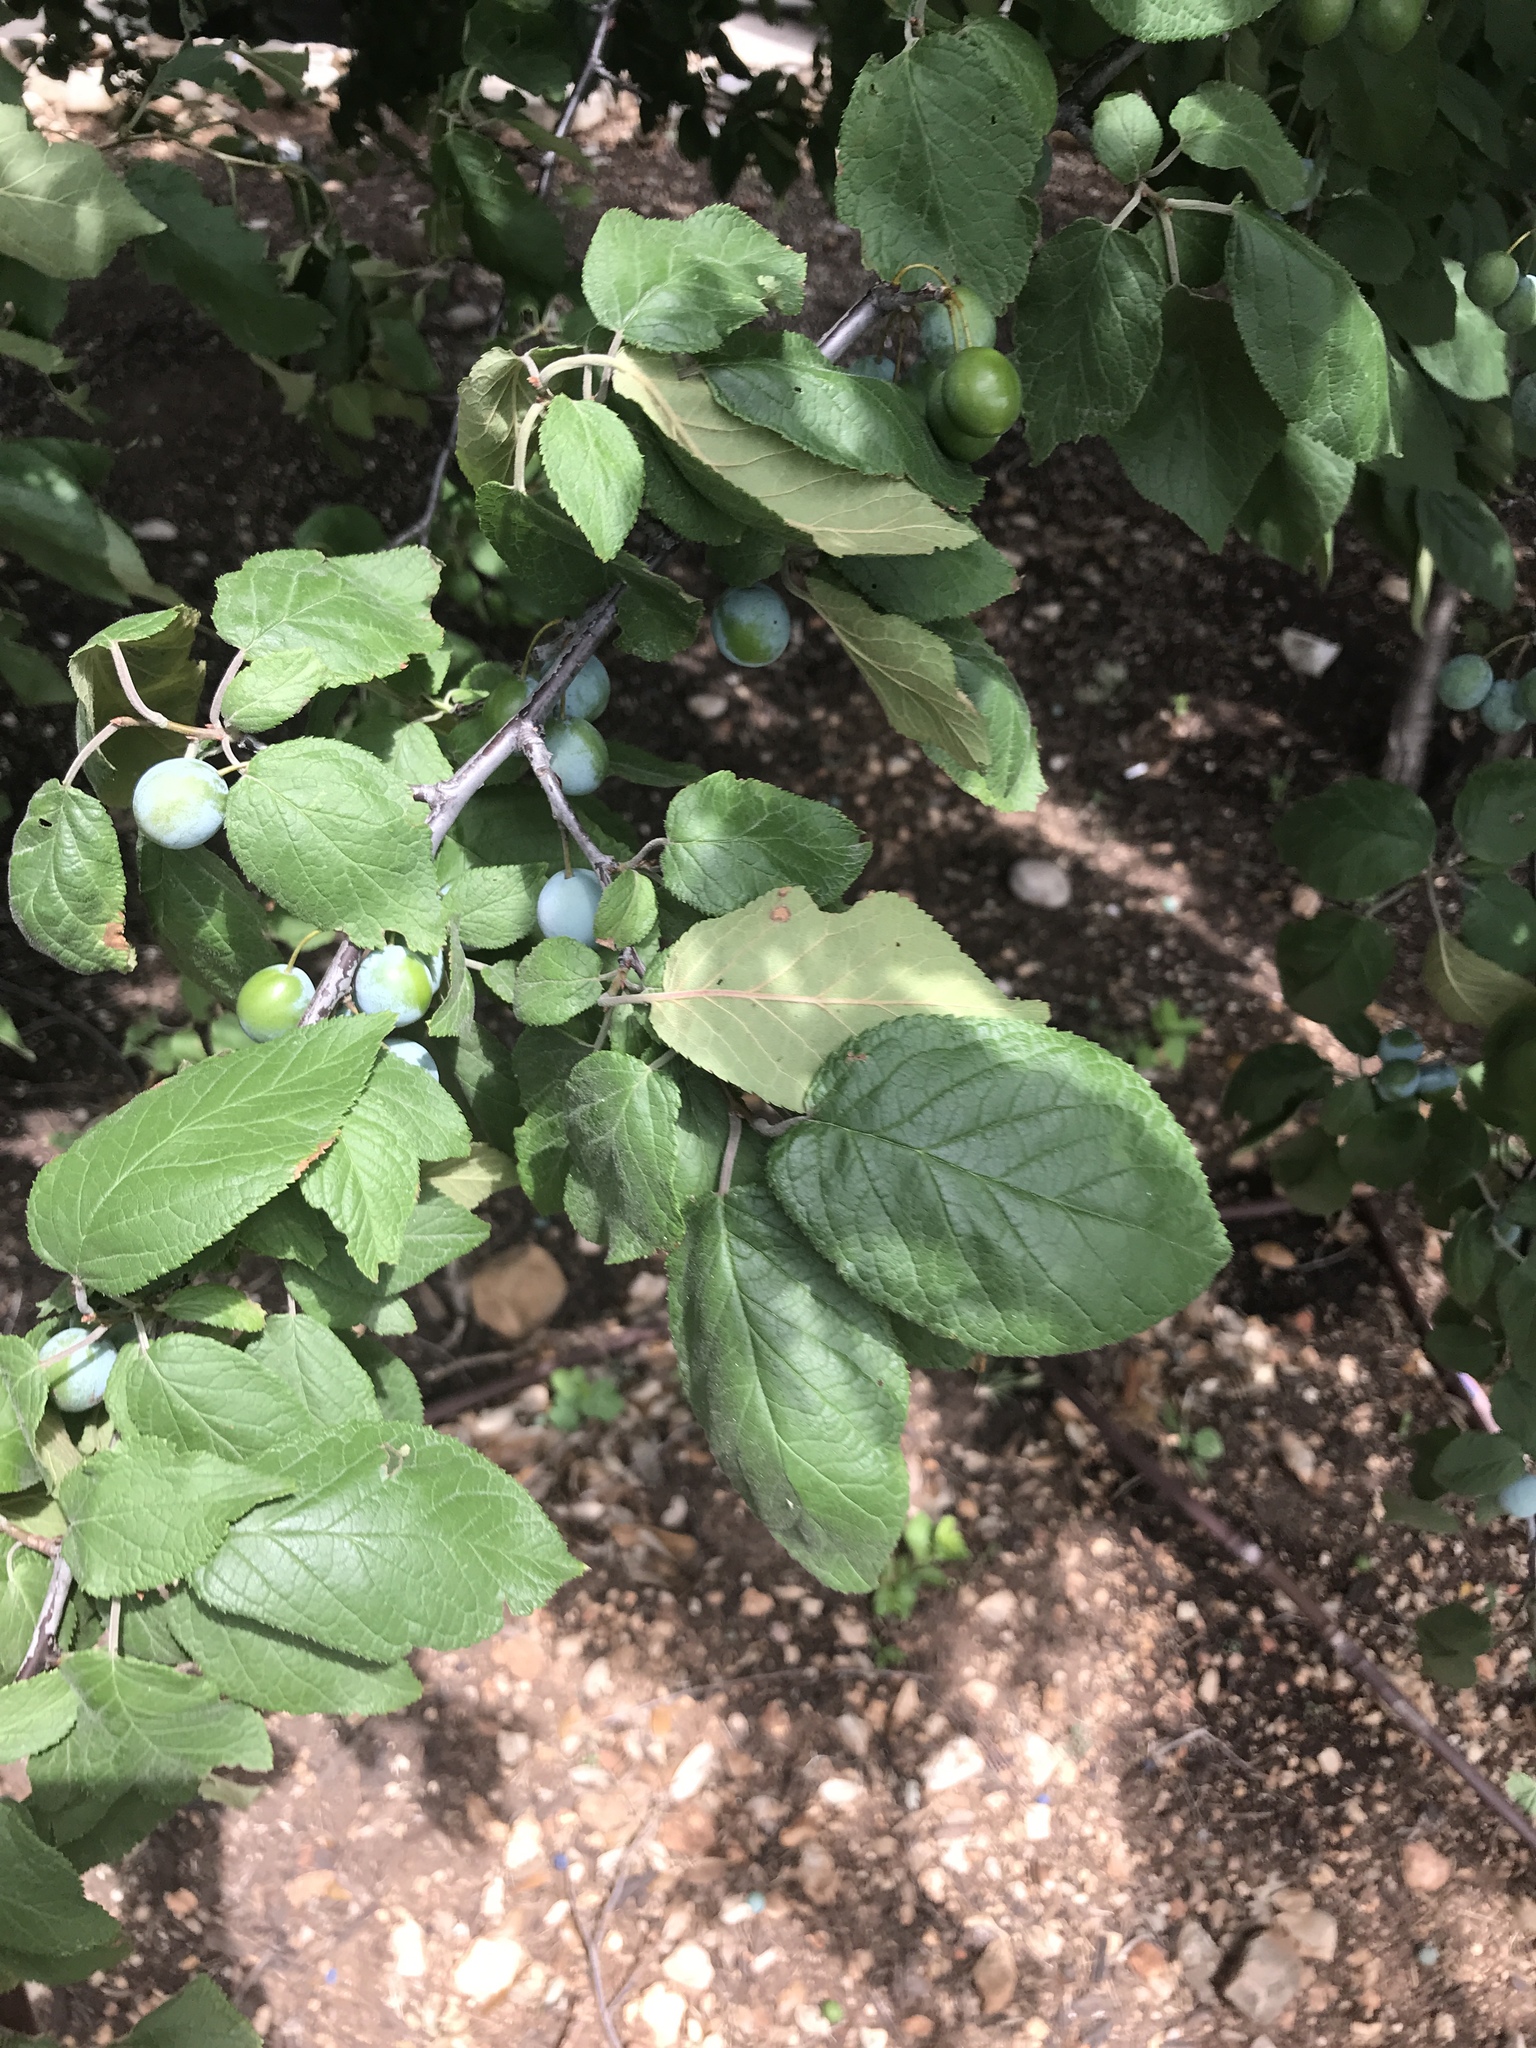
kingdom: Plantae
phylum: Tracheophyta
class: Magnoliopsida
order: Rosales
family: Rosaceae
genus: Prunus
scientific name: Prunus mexicana
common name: Mexican plum
